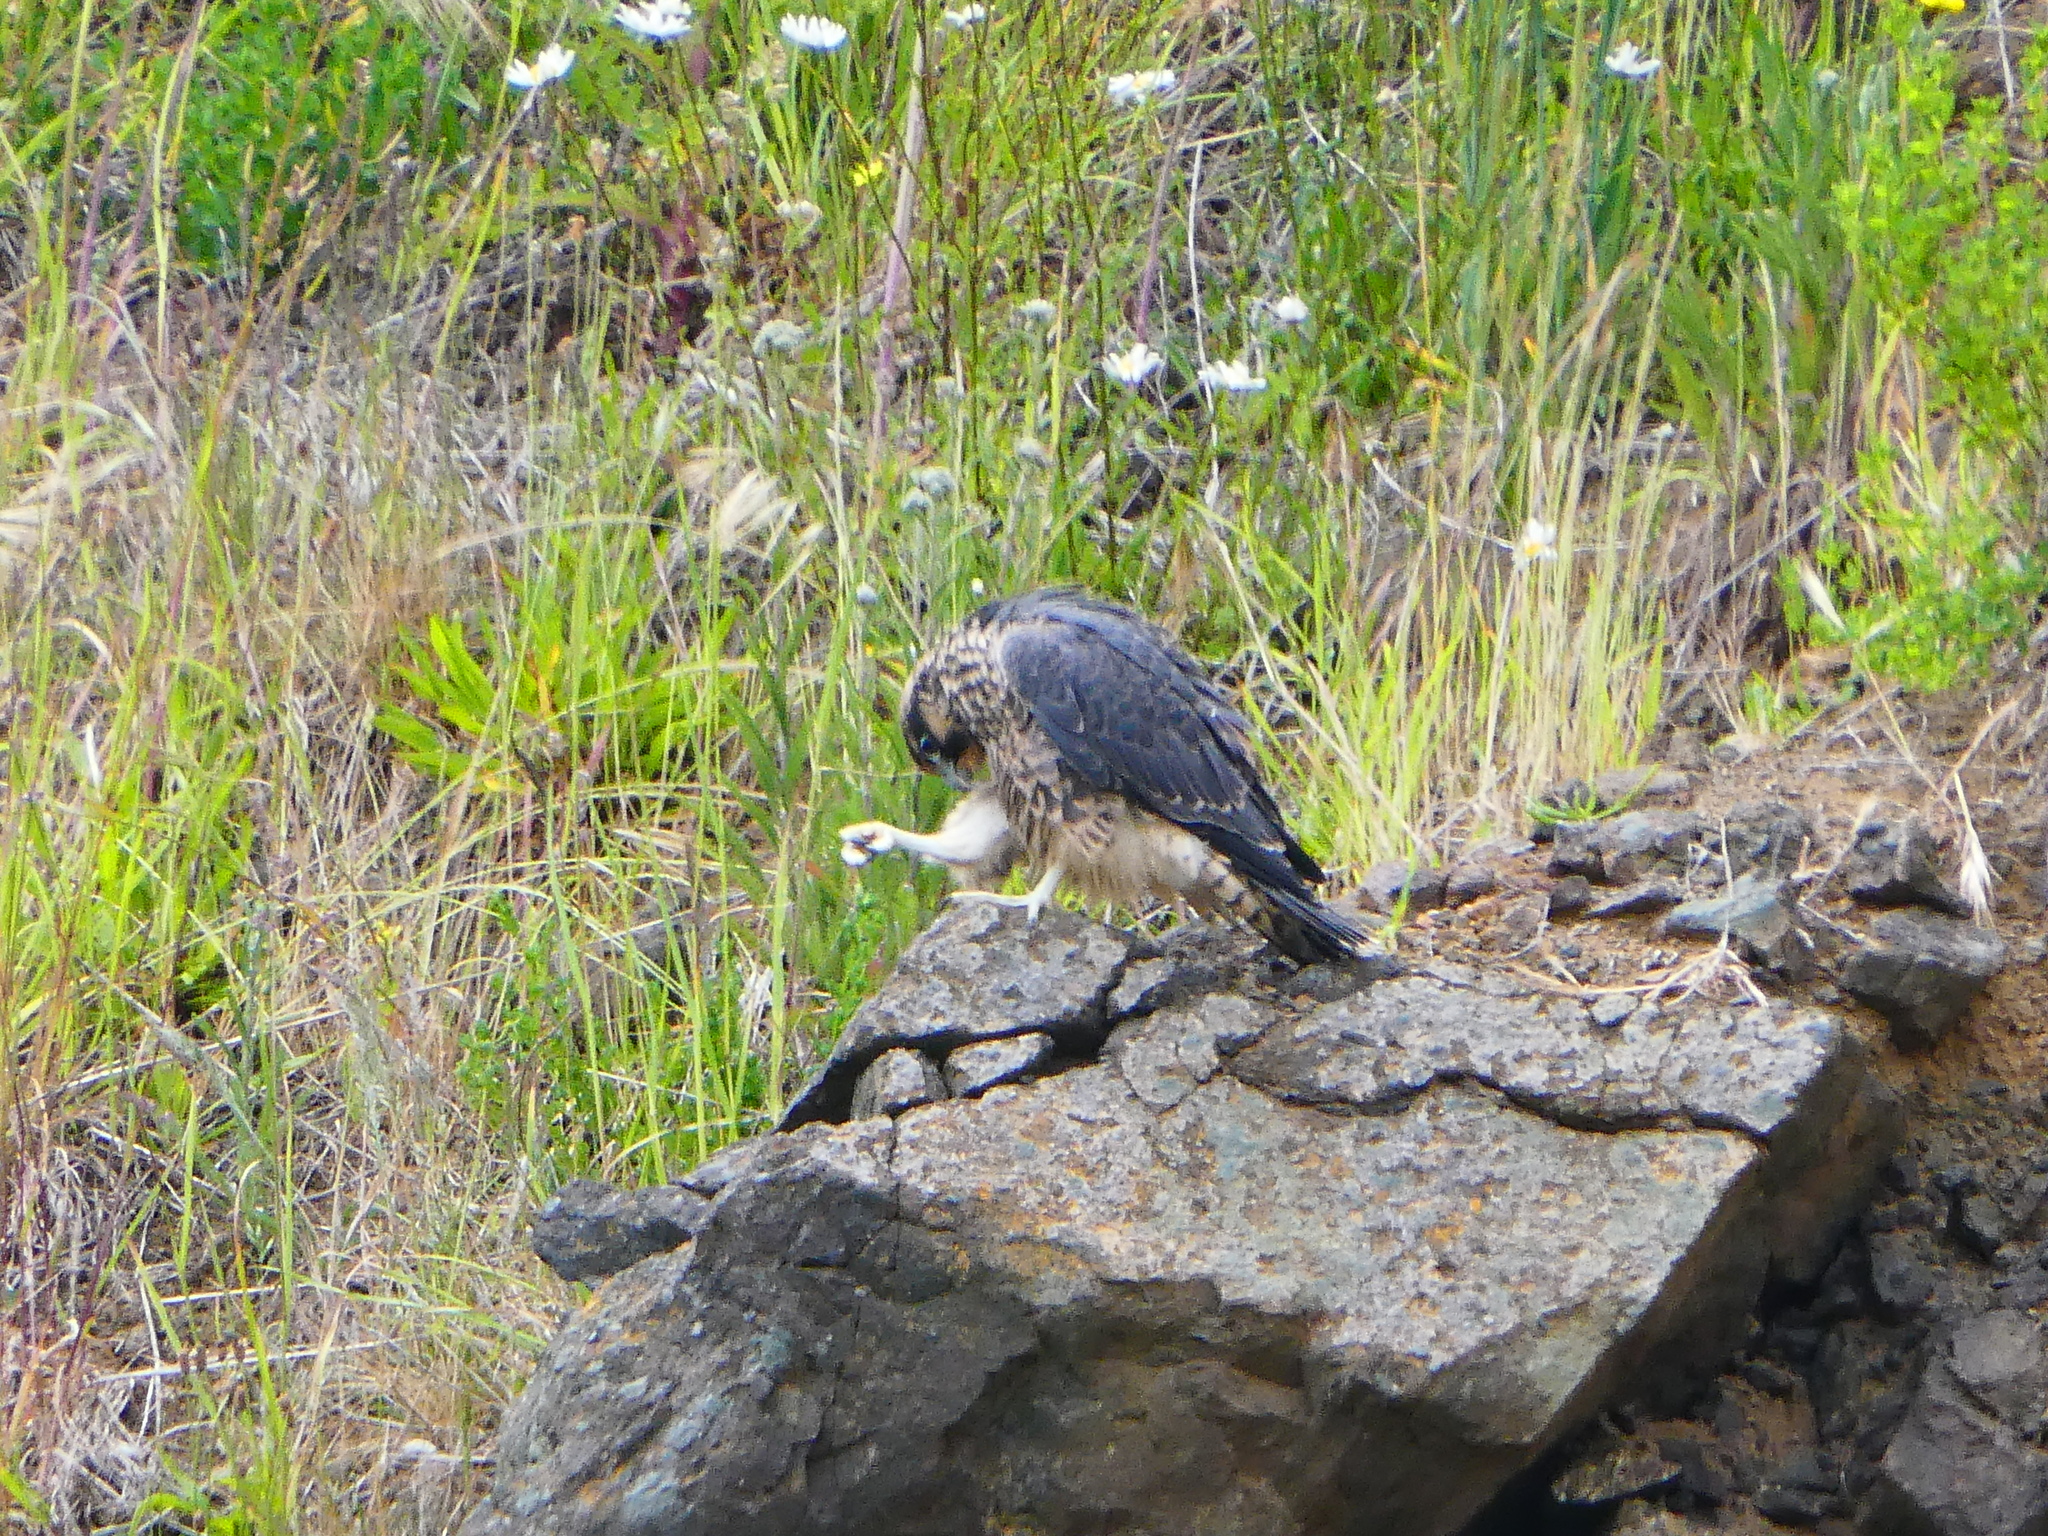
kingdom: Animalia
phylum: Chordata
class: Aves
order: Falconiformes
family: Falconidae
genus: Falco
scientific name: Falco peregrinus
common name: Peregrine falcon
